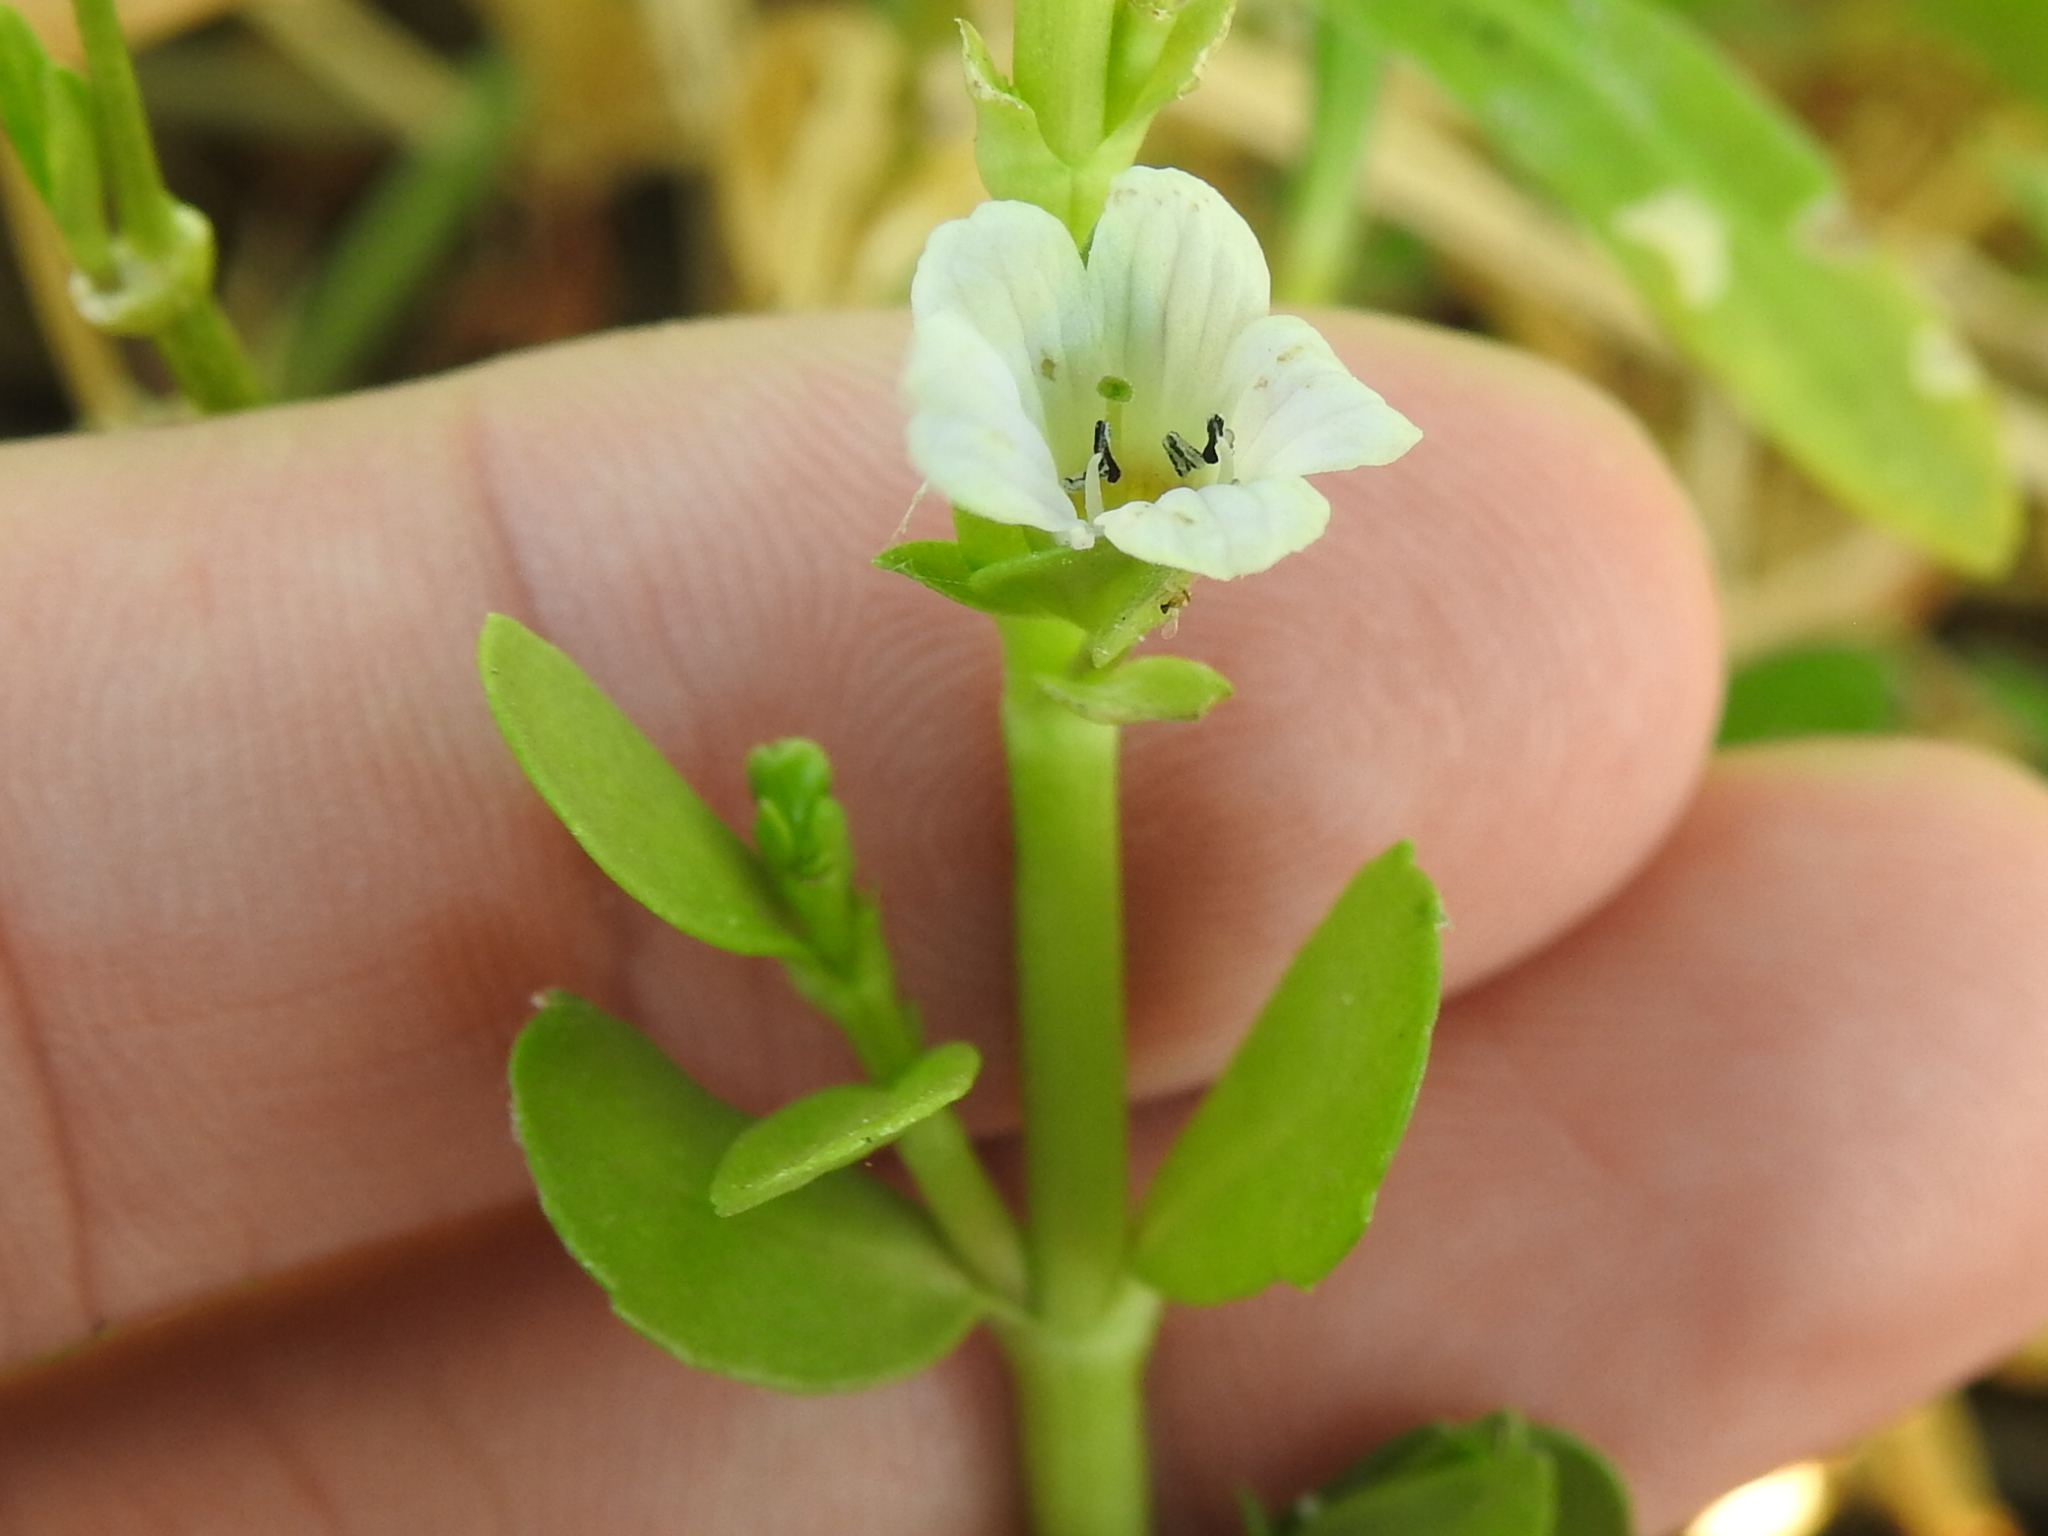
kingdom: Plantae
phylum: Tracheophyta
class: Magnoliopsida
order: Lamiales
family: Plantaginaceae
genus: Bacopa
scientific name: Bacopa monnieri
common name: Indian-pennywort
